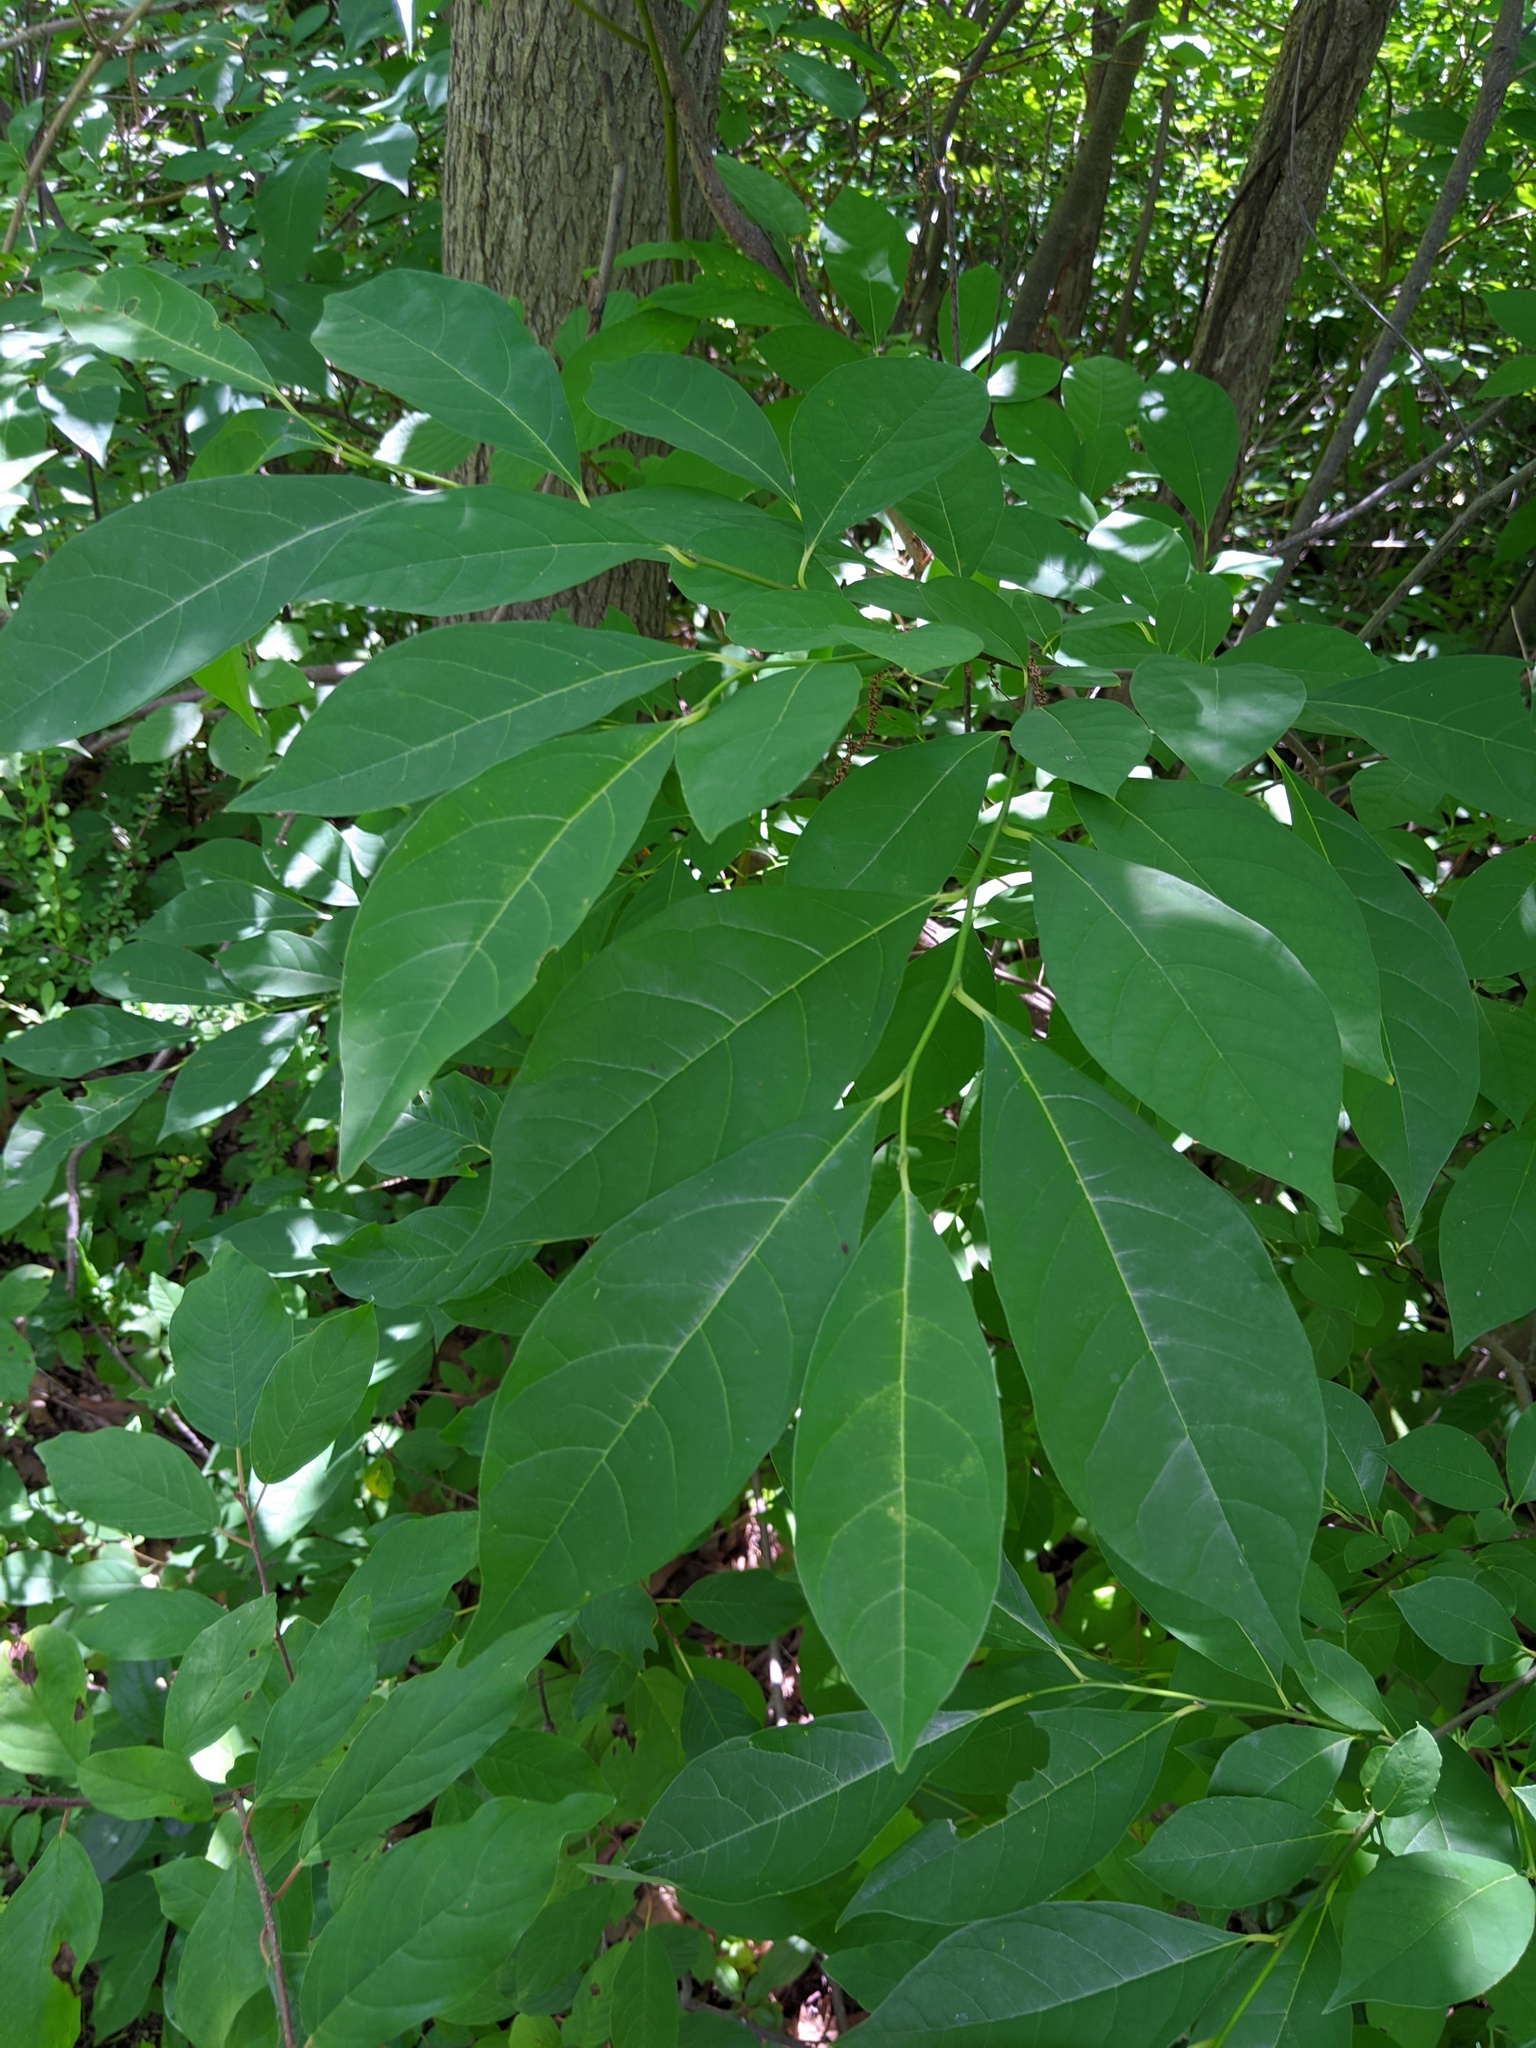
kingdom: Plantae
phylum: Tracheophyta
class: Magnoliopsida
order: Laurales
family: Lauraceae
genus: Lindera
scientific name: Lindera benzoin
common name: Spicebush
